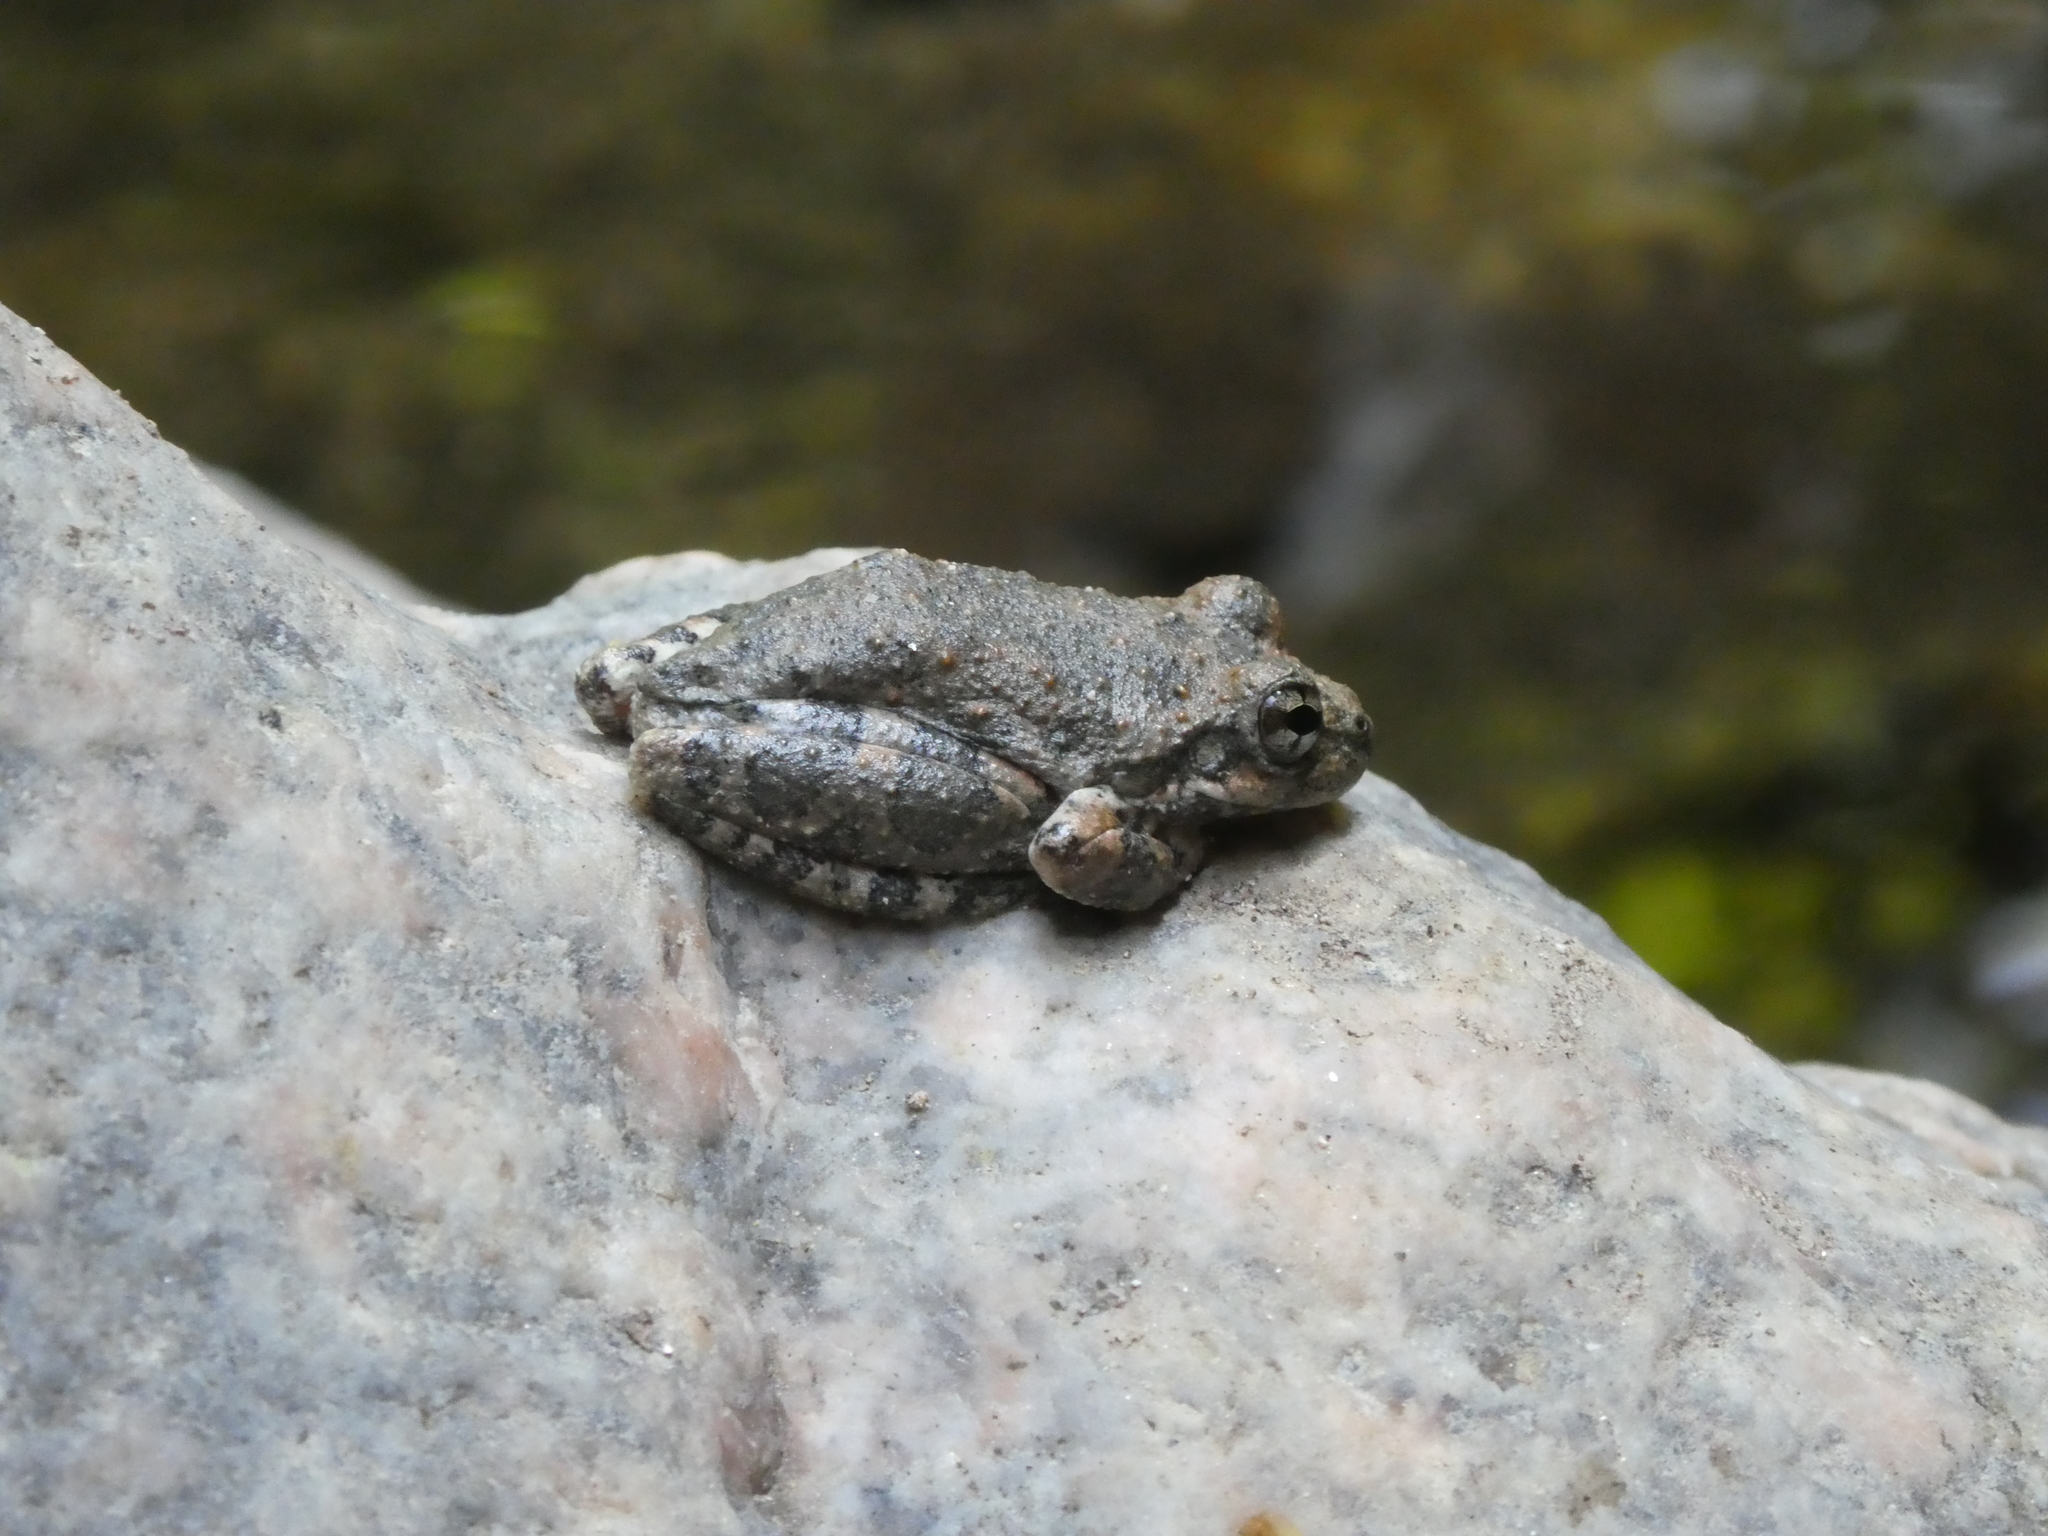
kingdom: Animalia
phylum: Chordata
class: Amphibia
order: Anura
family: Hylidae
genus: Pseudacris
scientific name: Pseudacris cadaverina
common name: California chorus frog
